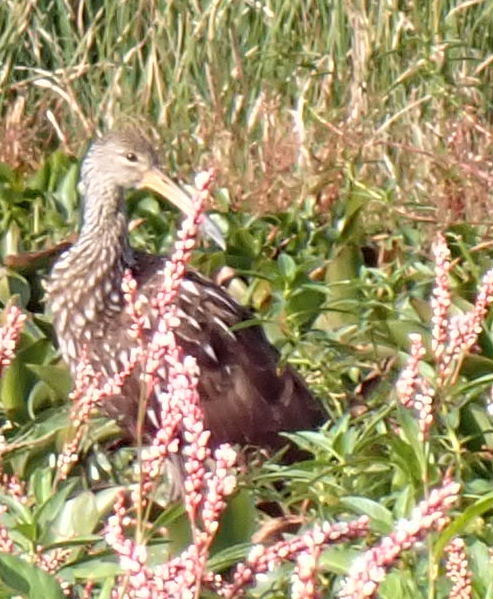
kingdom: Animalia
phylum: Chordata
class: Aves
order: Gruiformes
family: Aramidae
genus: Aramus
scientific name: Aramus guarauna
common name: Limpkin
